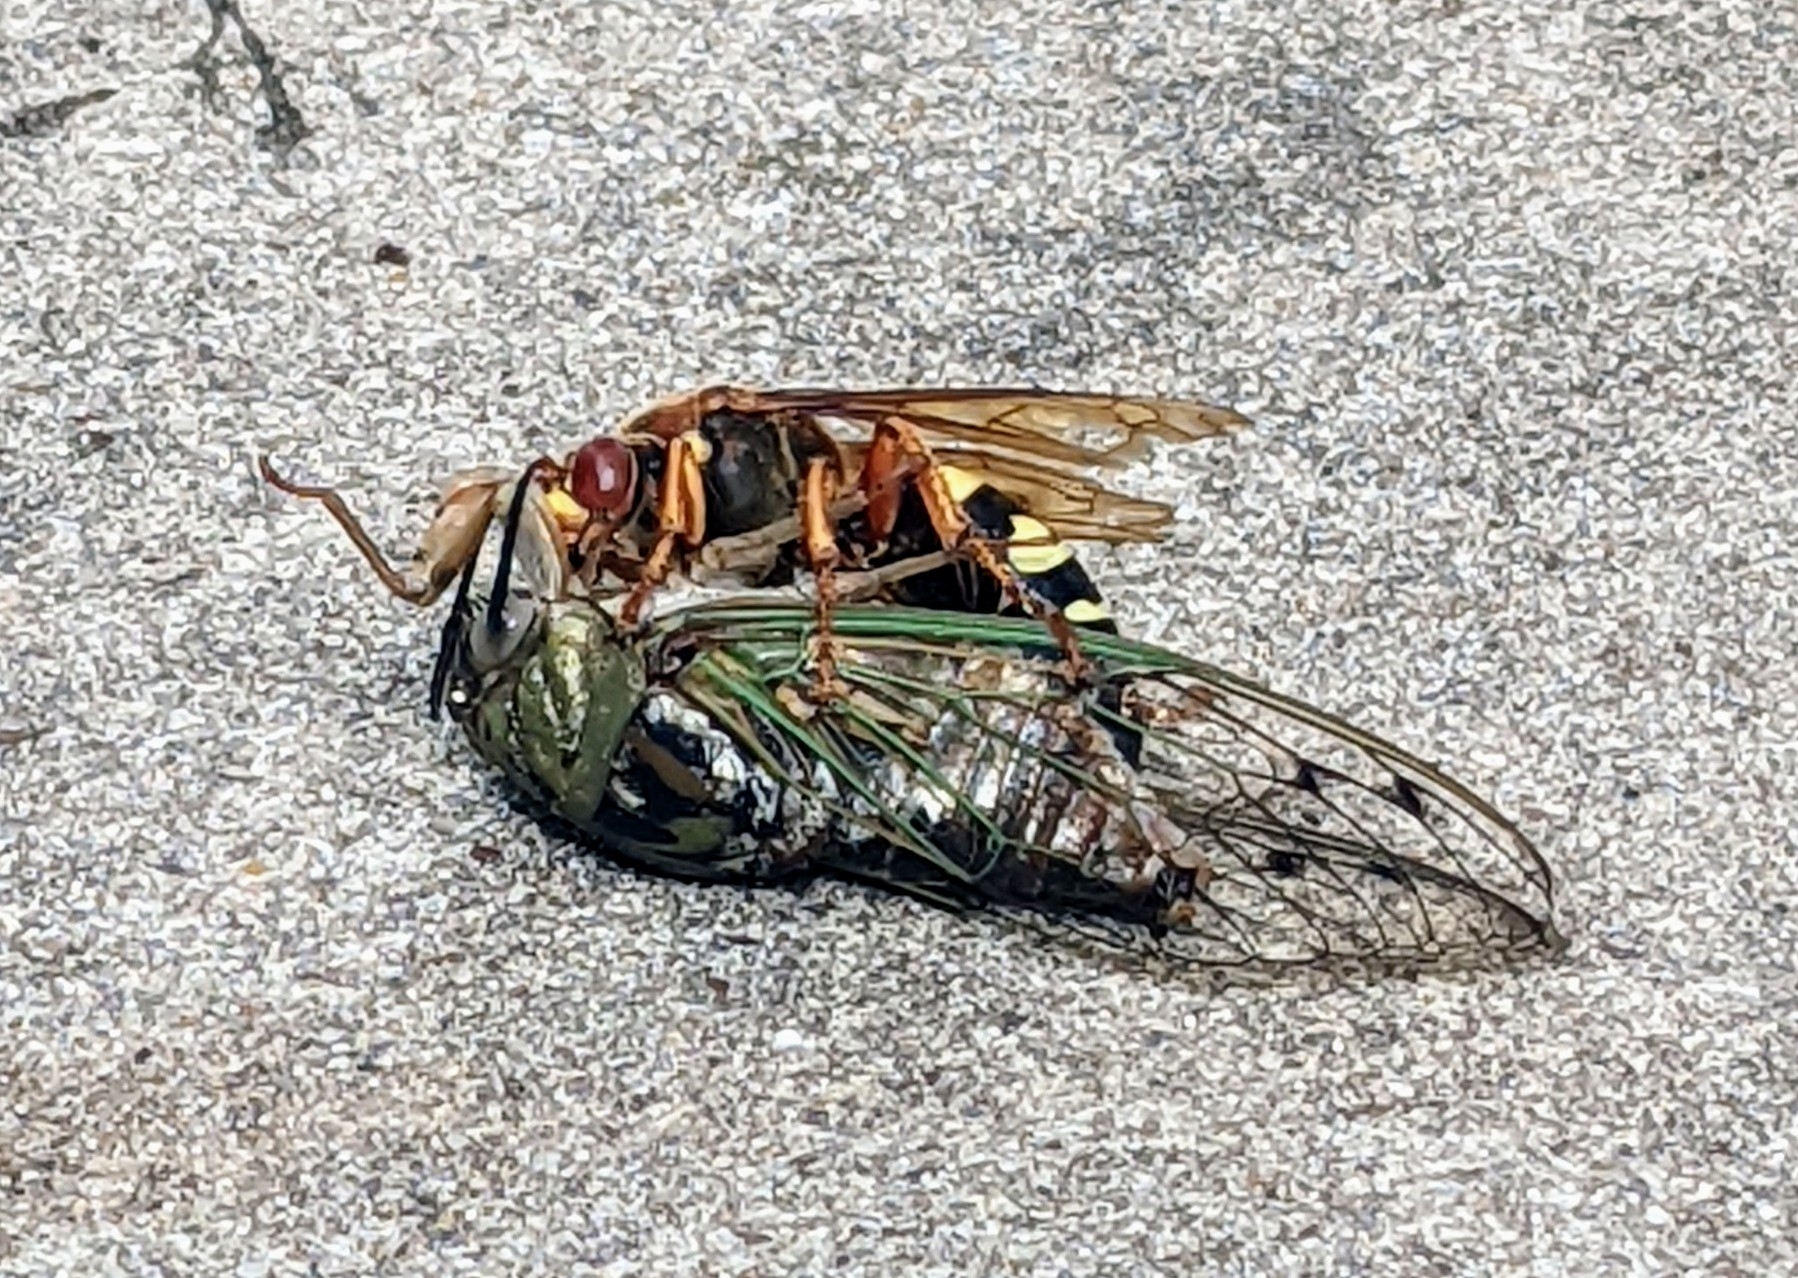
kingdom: Animalia
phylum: Arthropoda
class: Insecta
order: Hymenoptera
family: Crabronidae
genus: Sphecius
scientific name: Sphecius speciosus
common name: Cicada killer
